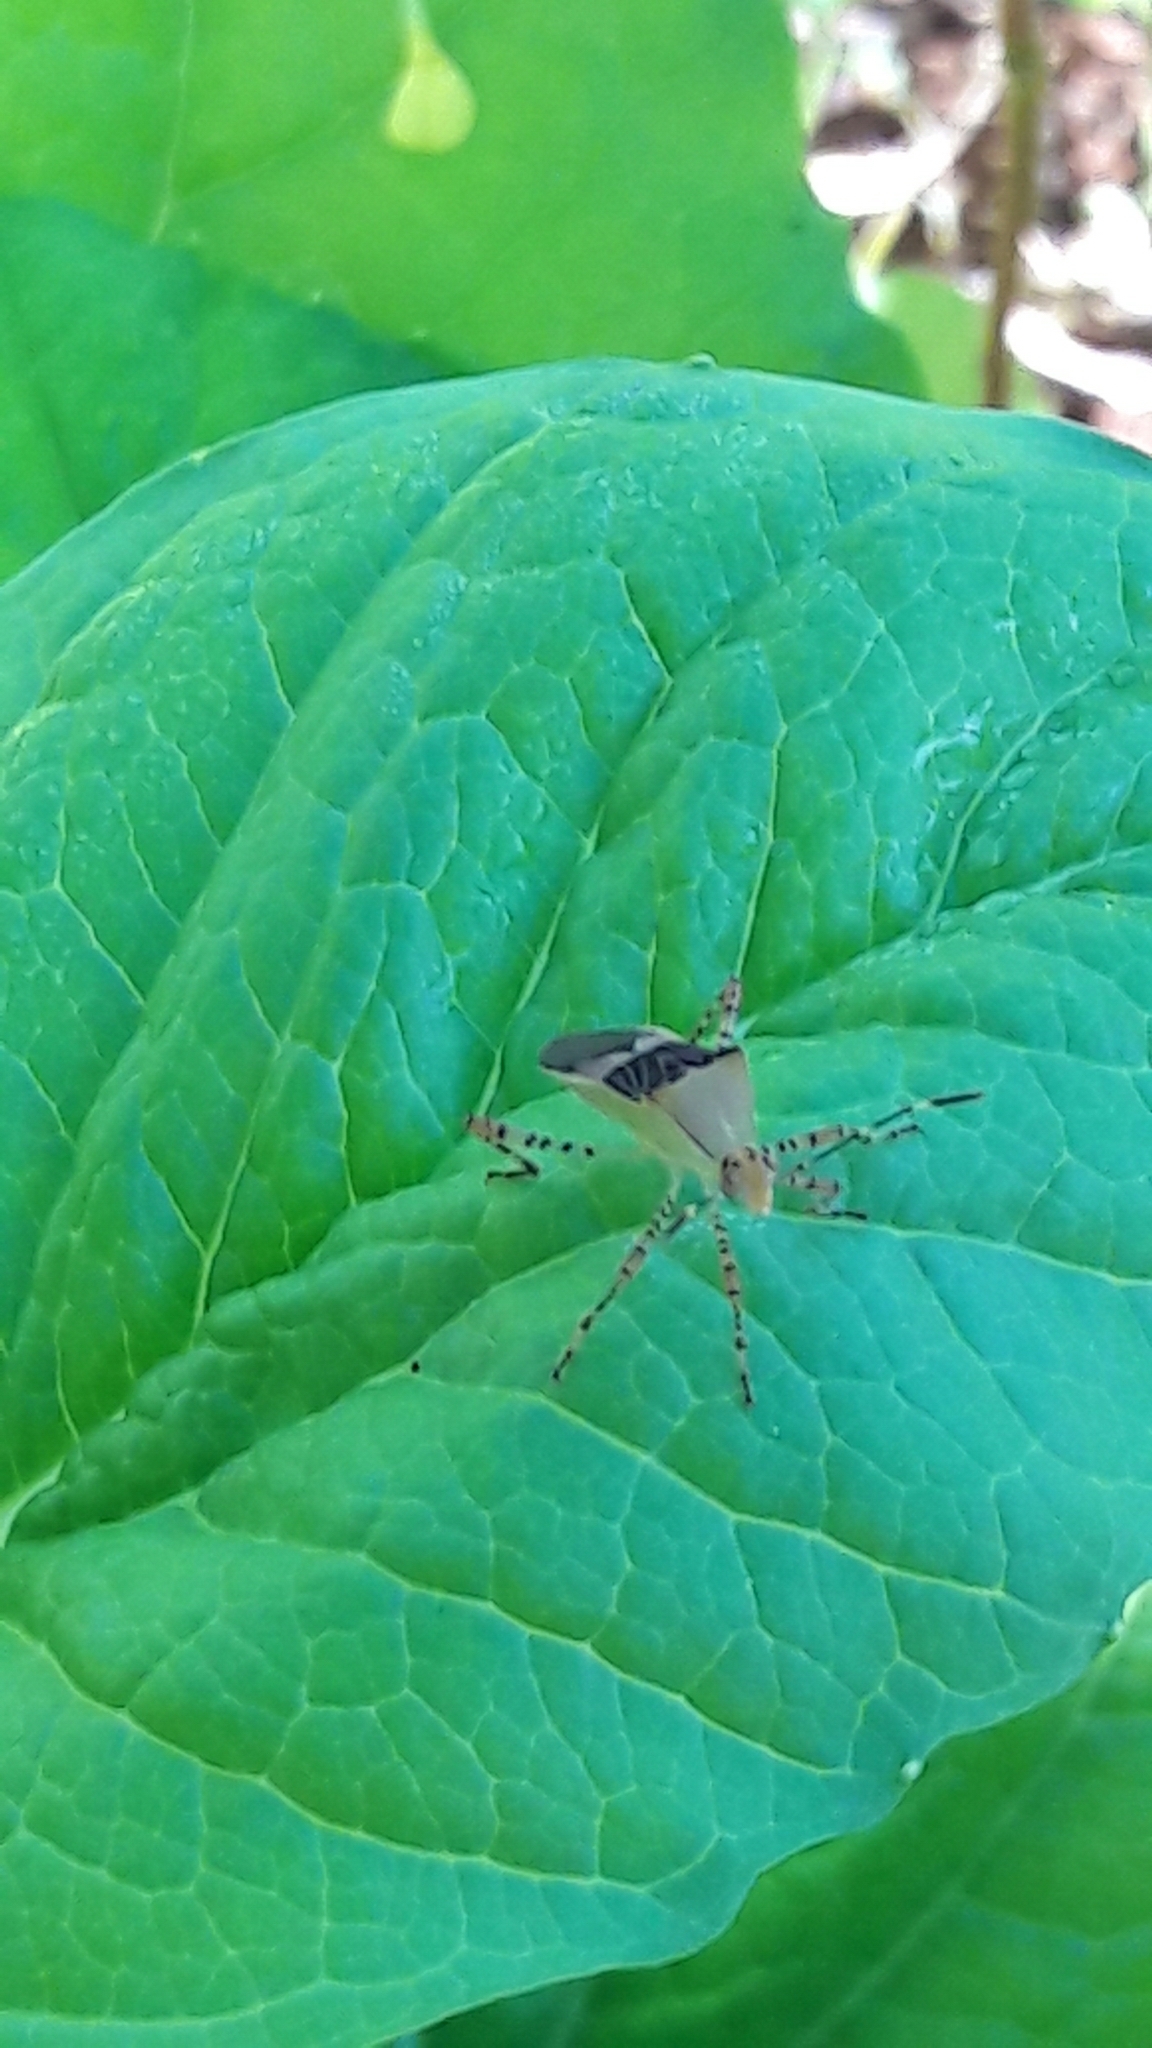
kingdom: Animalia
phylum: Arthropoda
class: Insecta
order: Hemiptera
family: Coreidae
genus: Hypselonotus
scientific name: Hypselonotus fulvus
